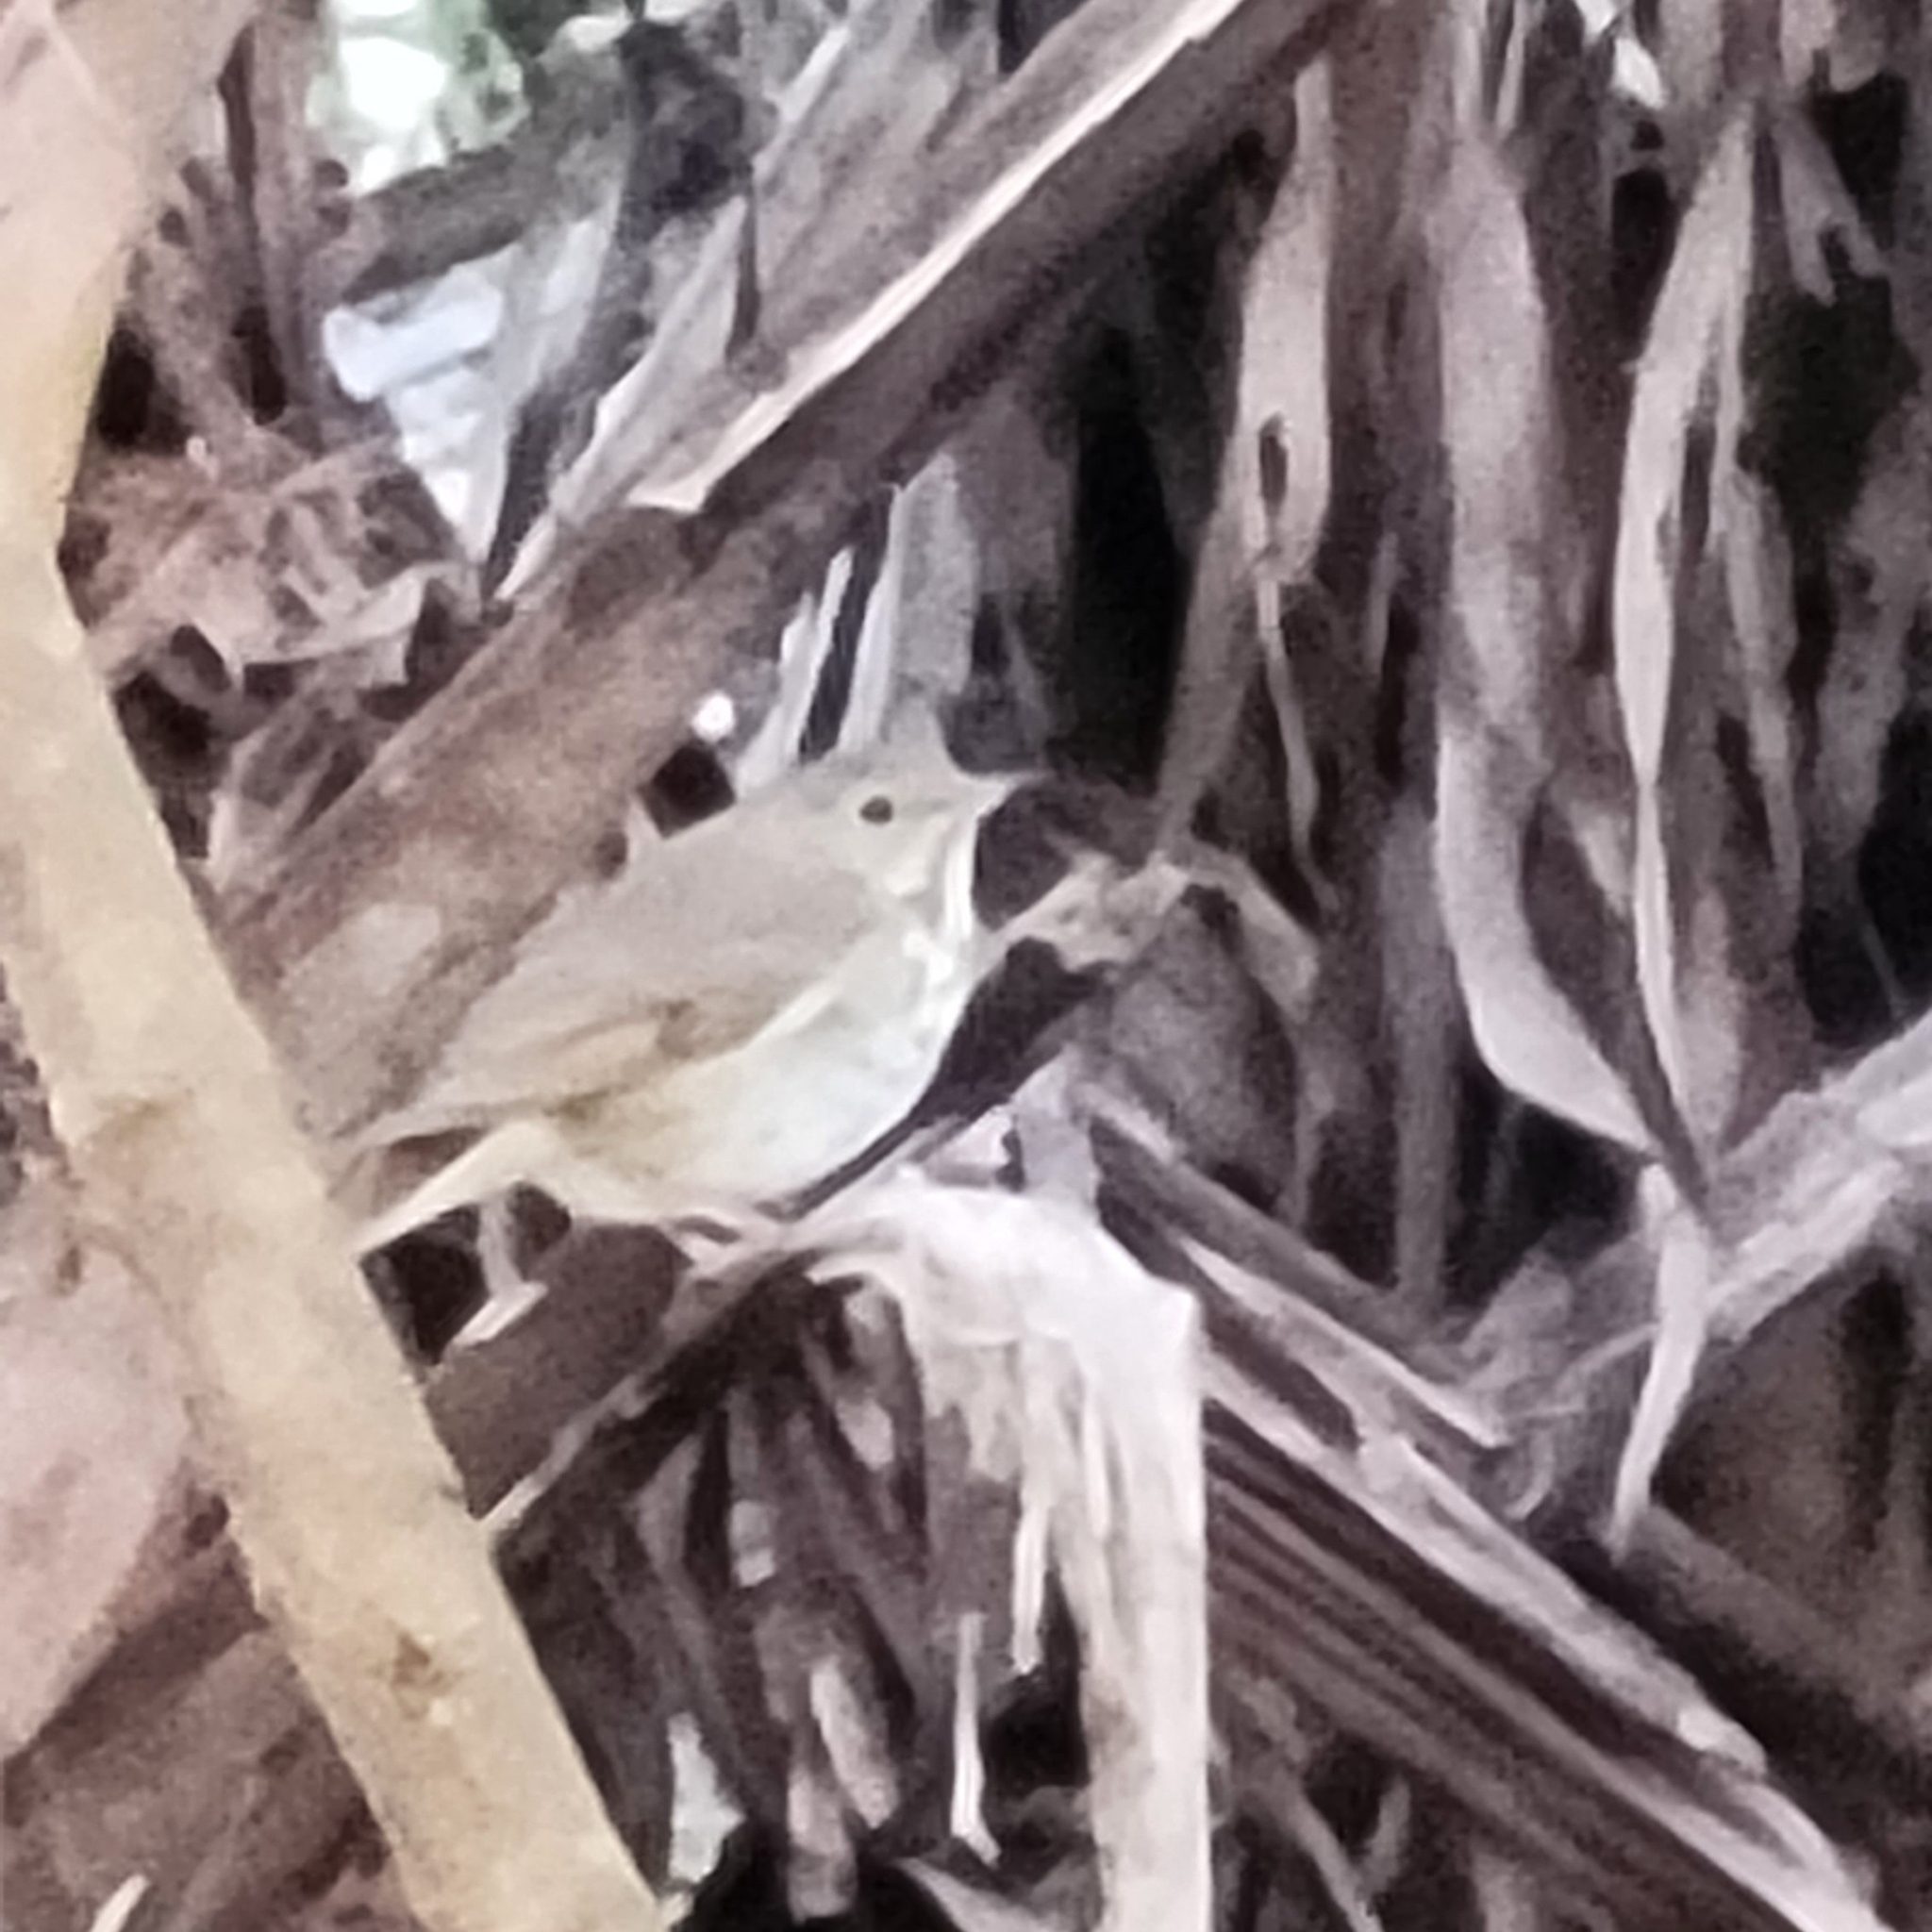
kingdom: Animalia
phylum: Chordata
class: Aves
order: Passeriformes
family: Turdidae
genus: Catharus
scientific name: Catharus guttatus
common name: Hermit thrush
